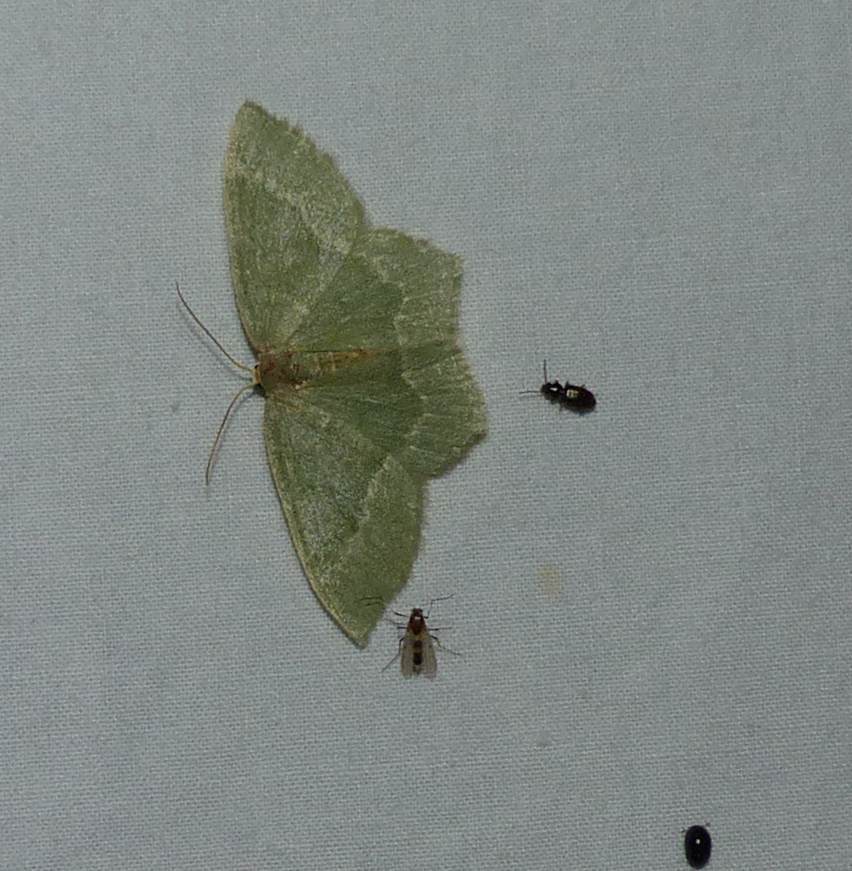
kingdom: Animalia
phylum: Arthropoda
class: Insecta
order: Lepidoptera
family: Geometridae
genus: Thalera
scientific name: Thalera pistasciaria
